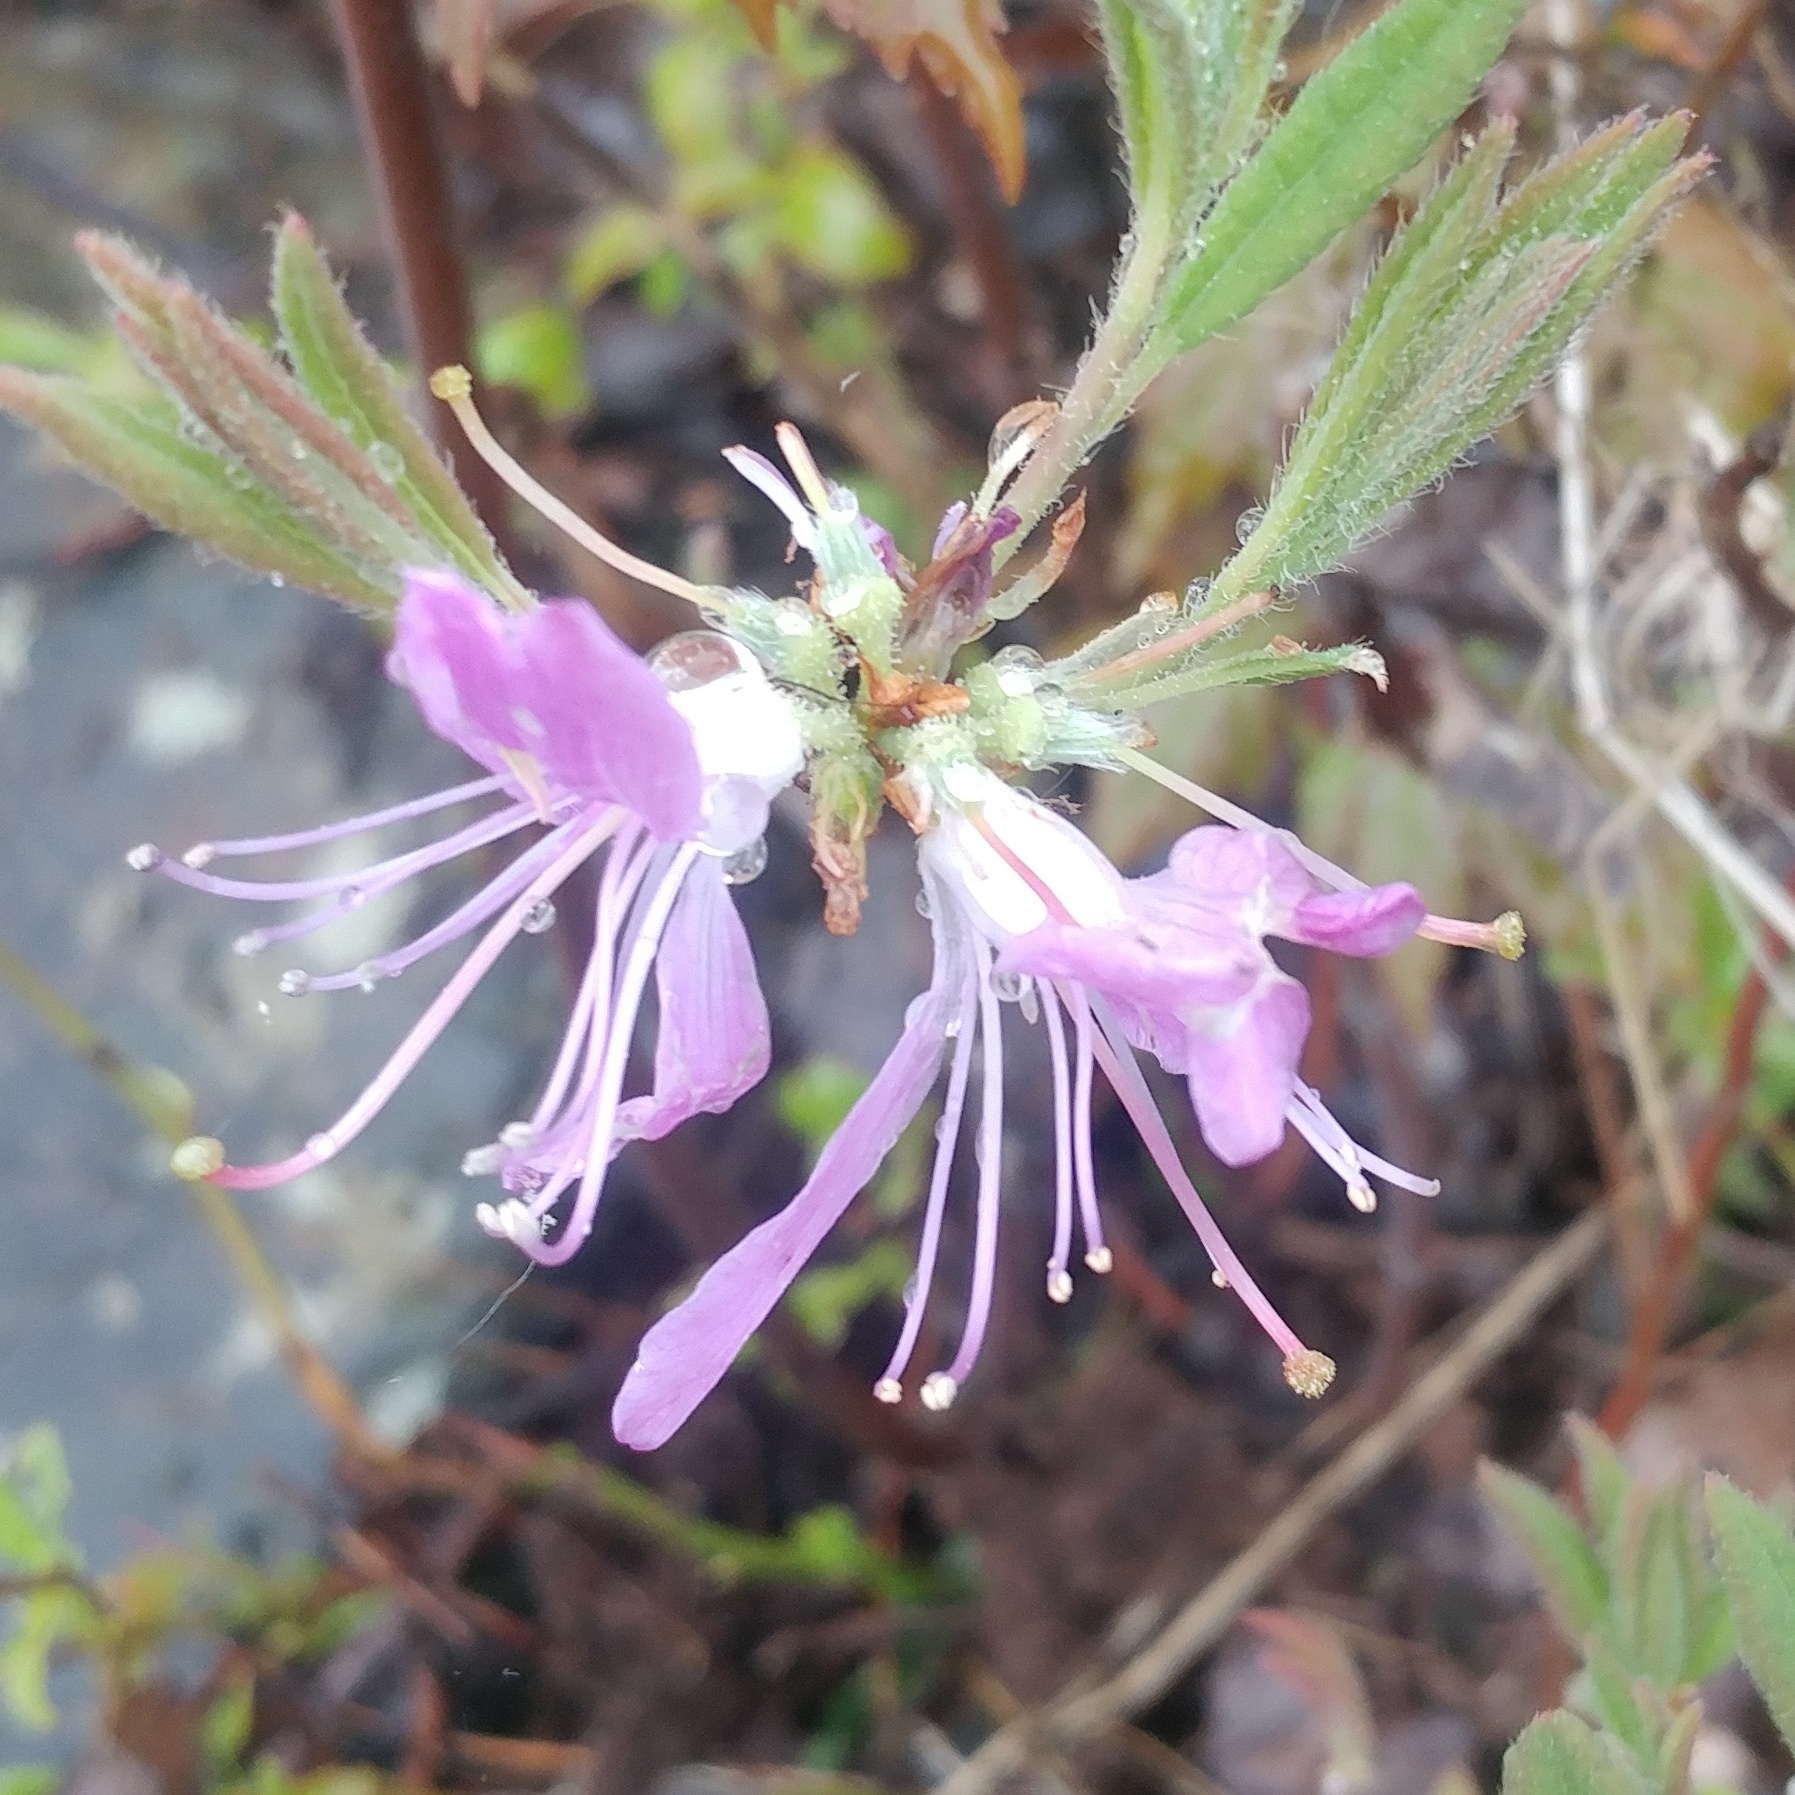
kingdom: Plantae
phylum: Tracheophyta
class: Magnoliopsida
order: Ericales
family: Ericaceae
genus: Rhododendron
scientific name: Rhododendron canadense
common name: Rhodora
